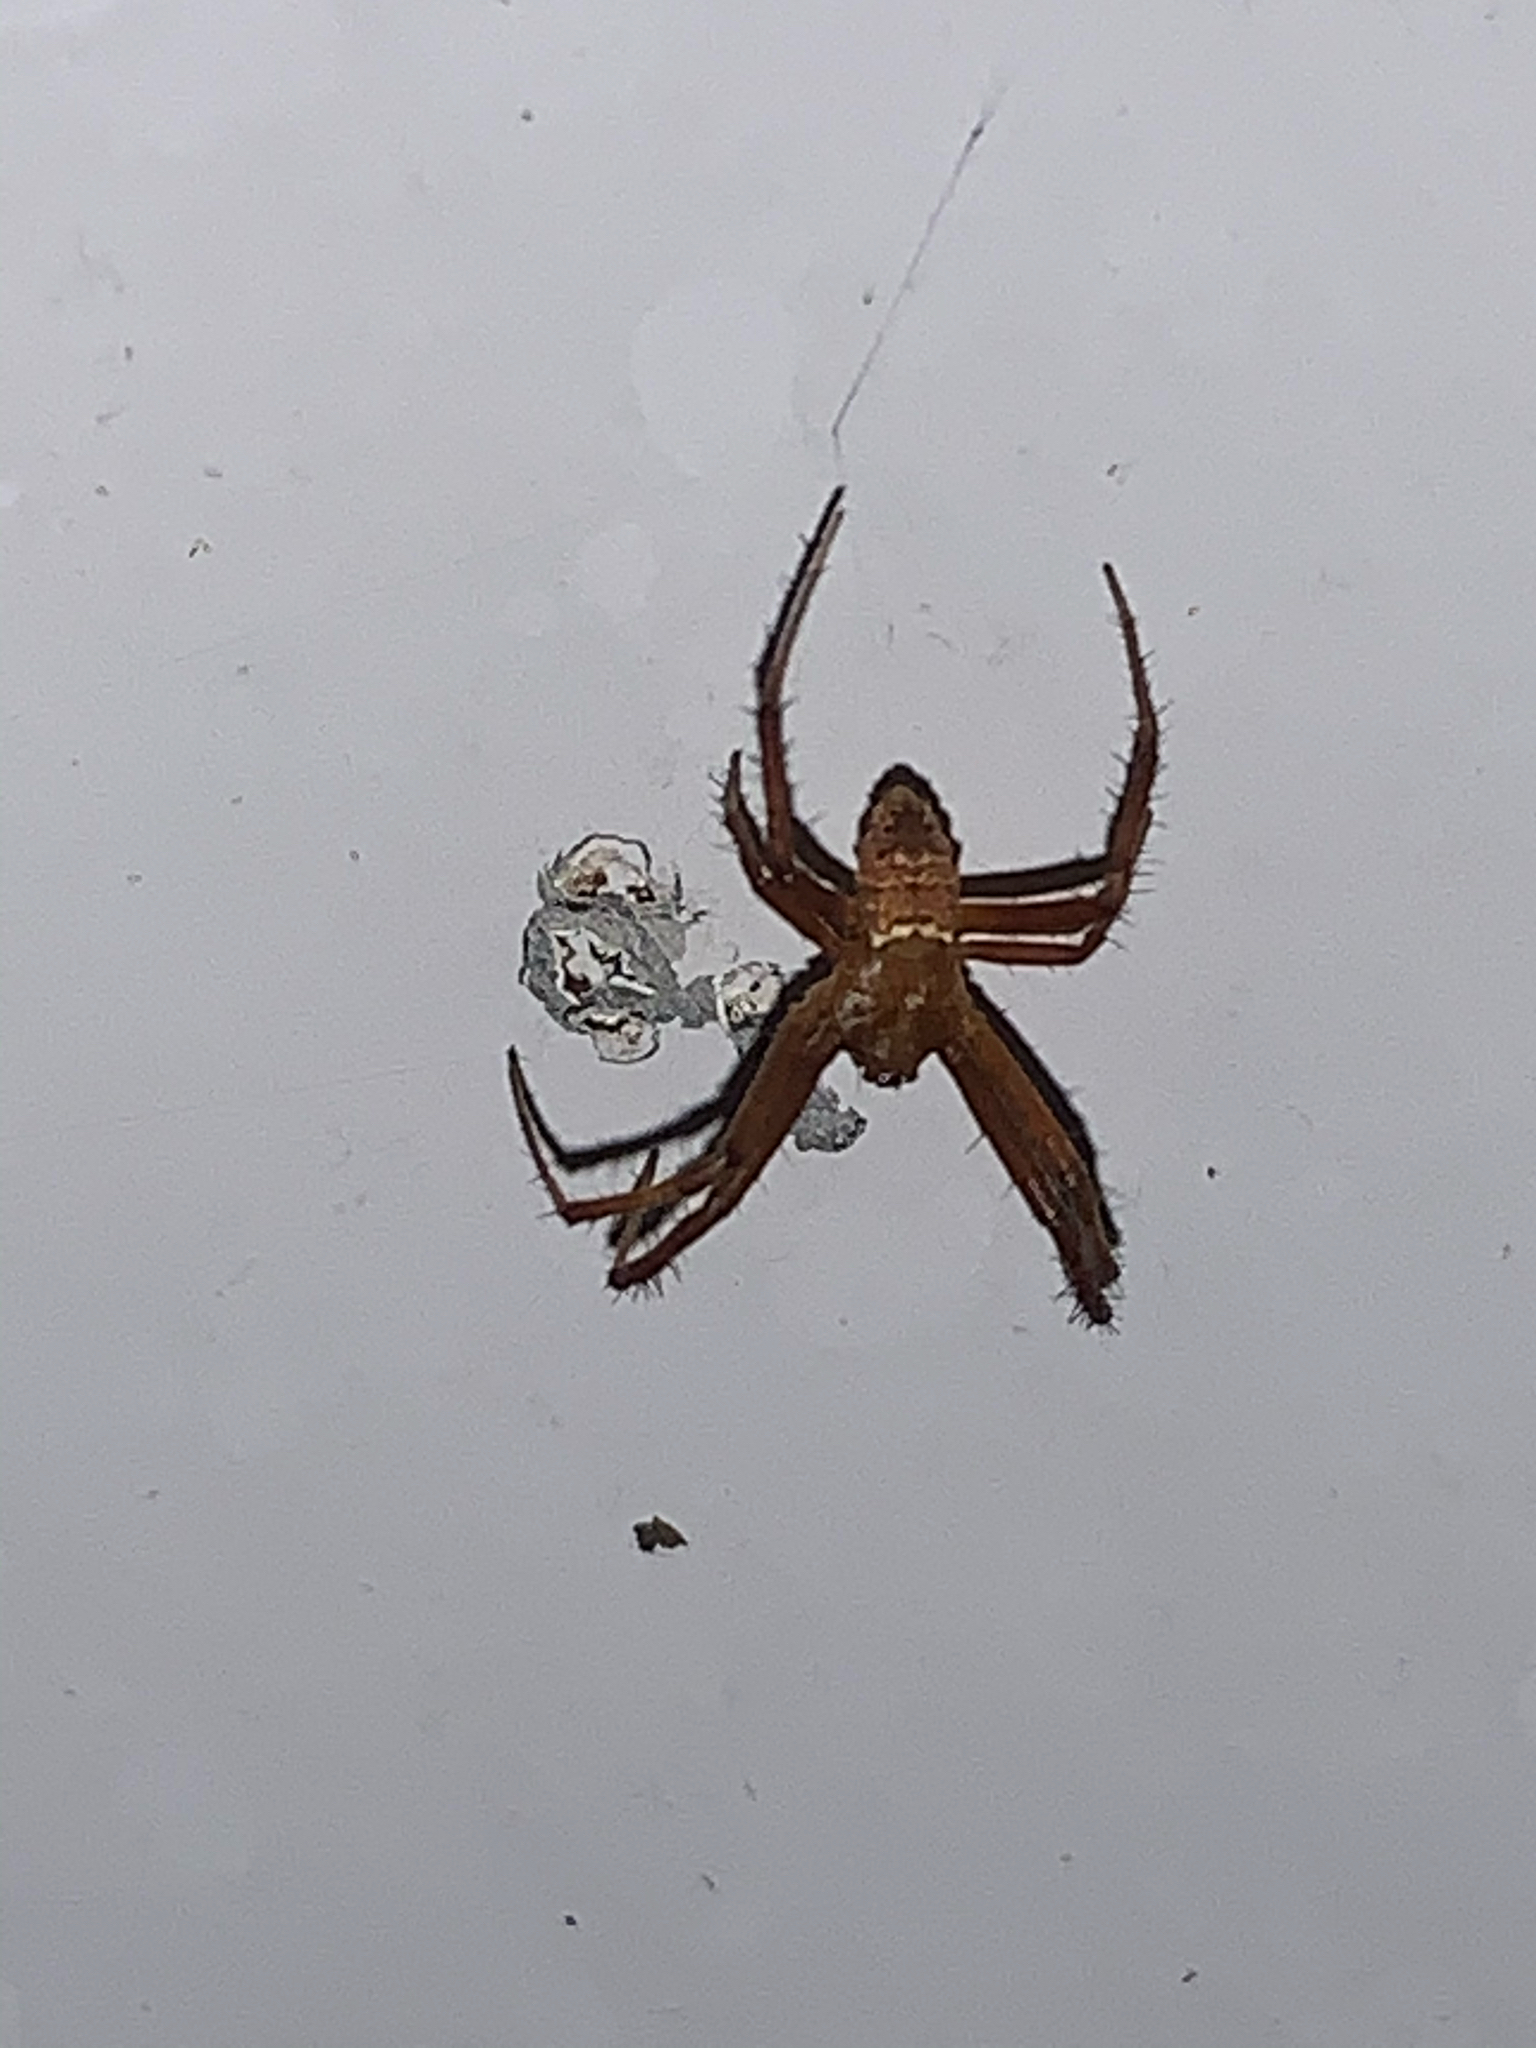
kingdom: Animalia
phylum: Arthropoda
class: Arachnida
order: Araneae
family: Araneidae
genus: Gea
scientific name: Gea heptagon
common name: Orb weavers
